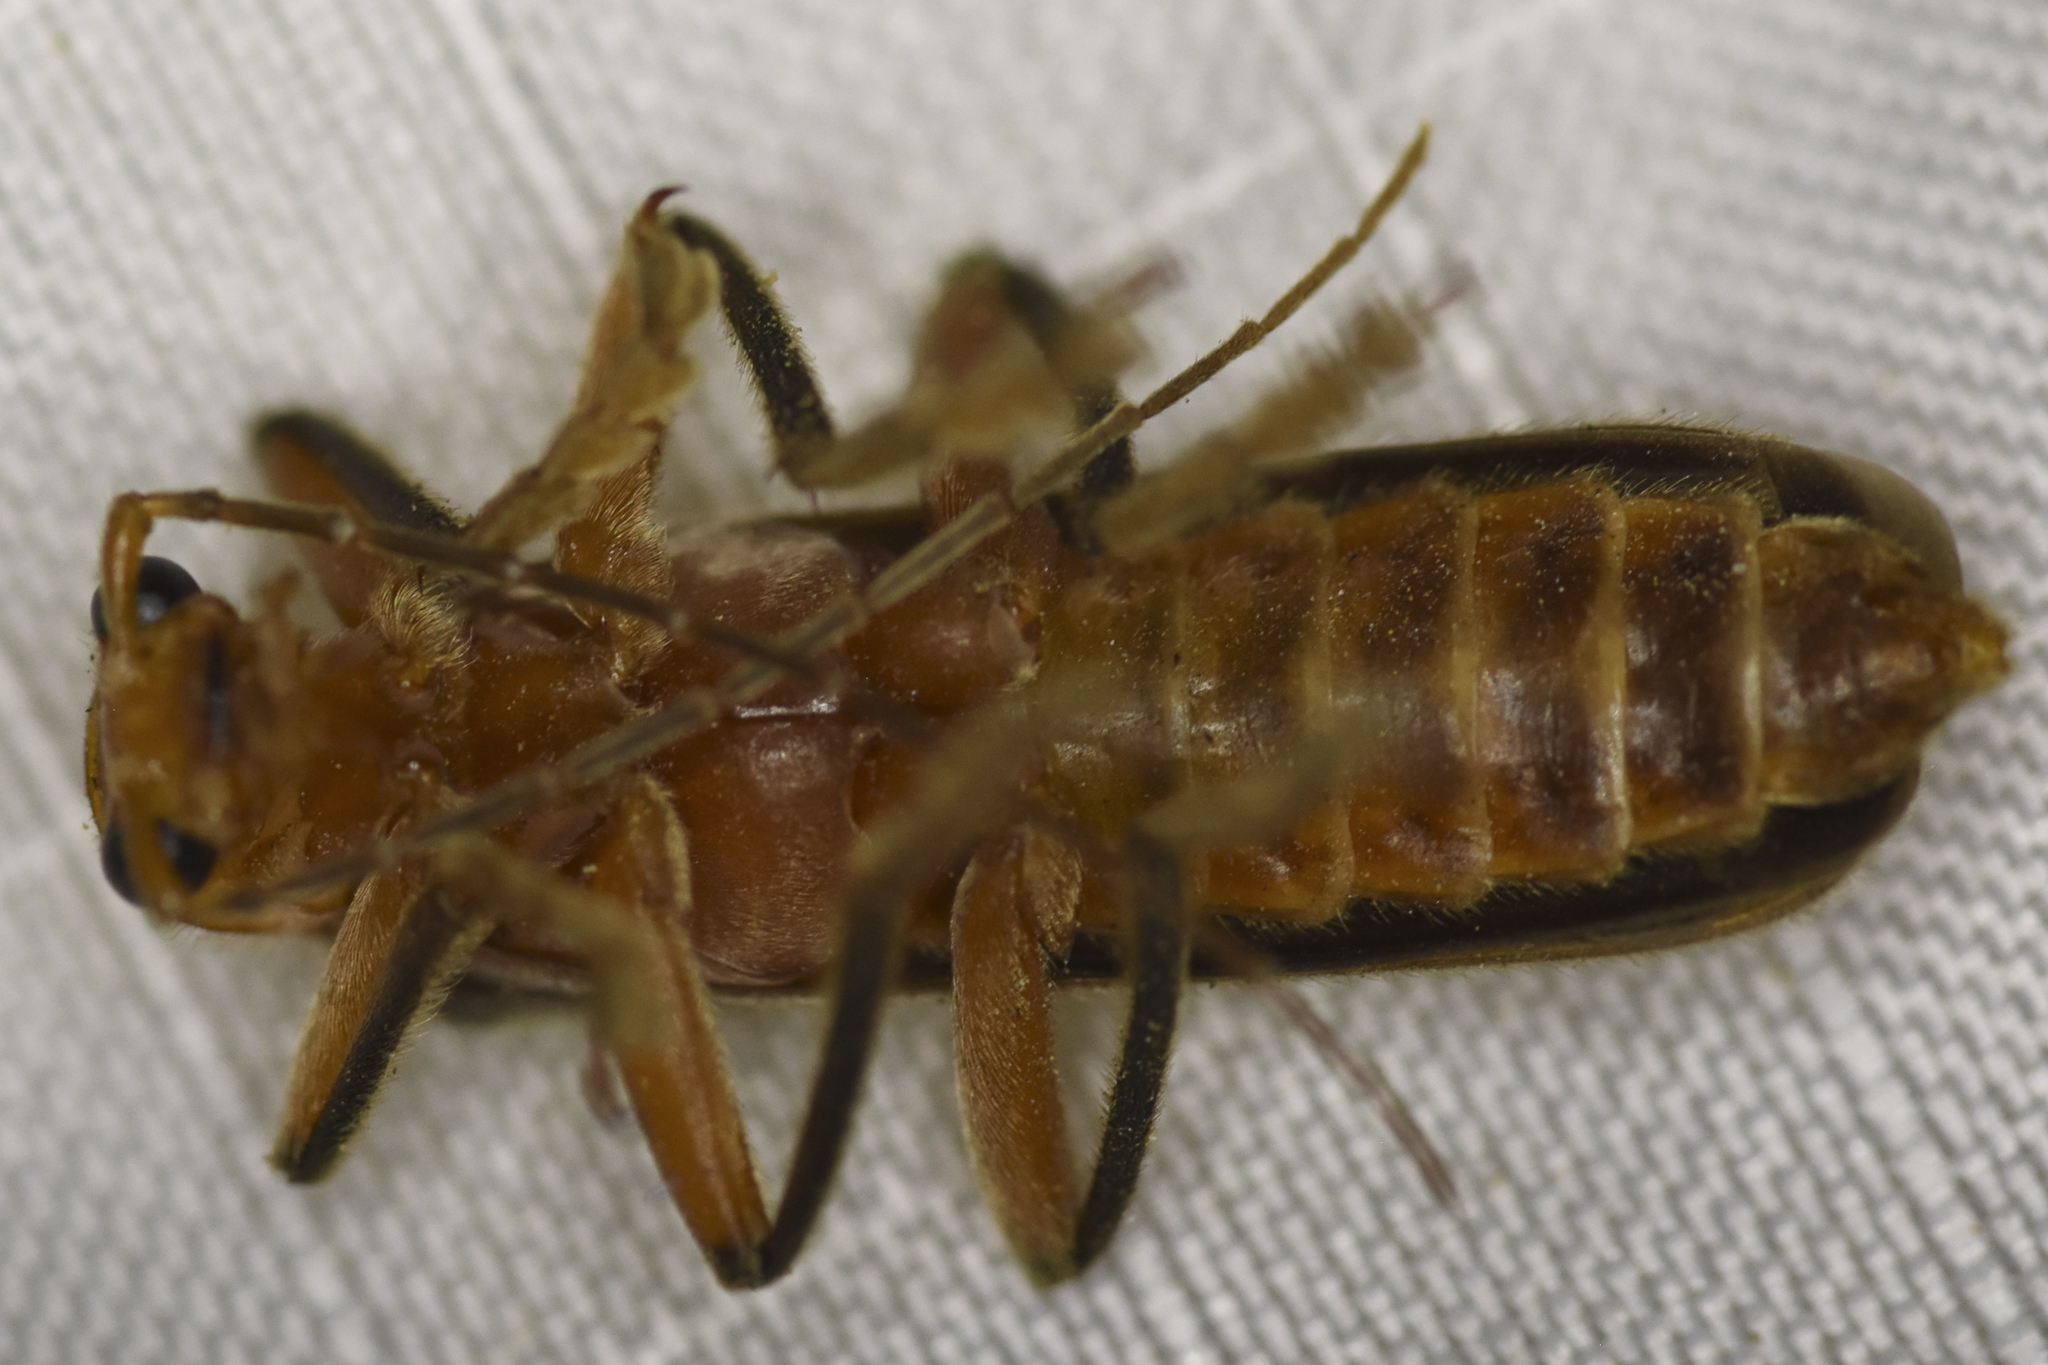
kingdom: Animalia
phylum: Arthropoda
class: Insecta
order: Coleoptera
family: Cantharidae
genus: Pacificanthia
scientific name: Pacificanthia consors
